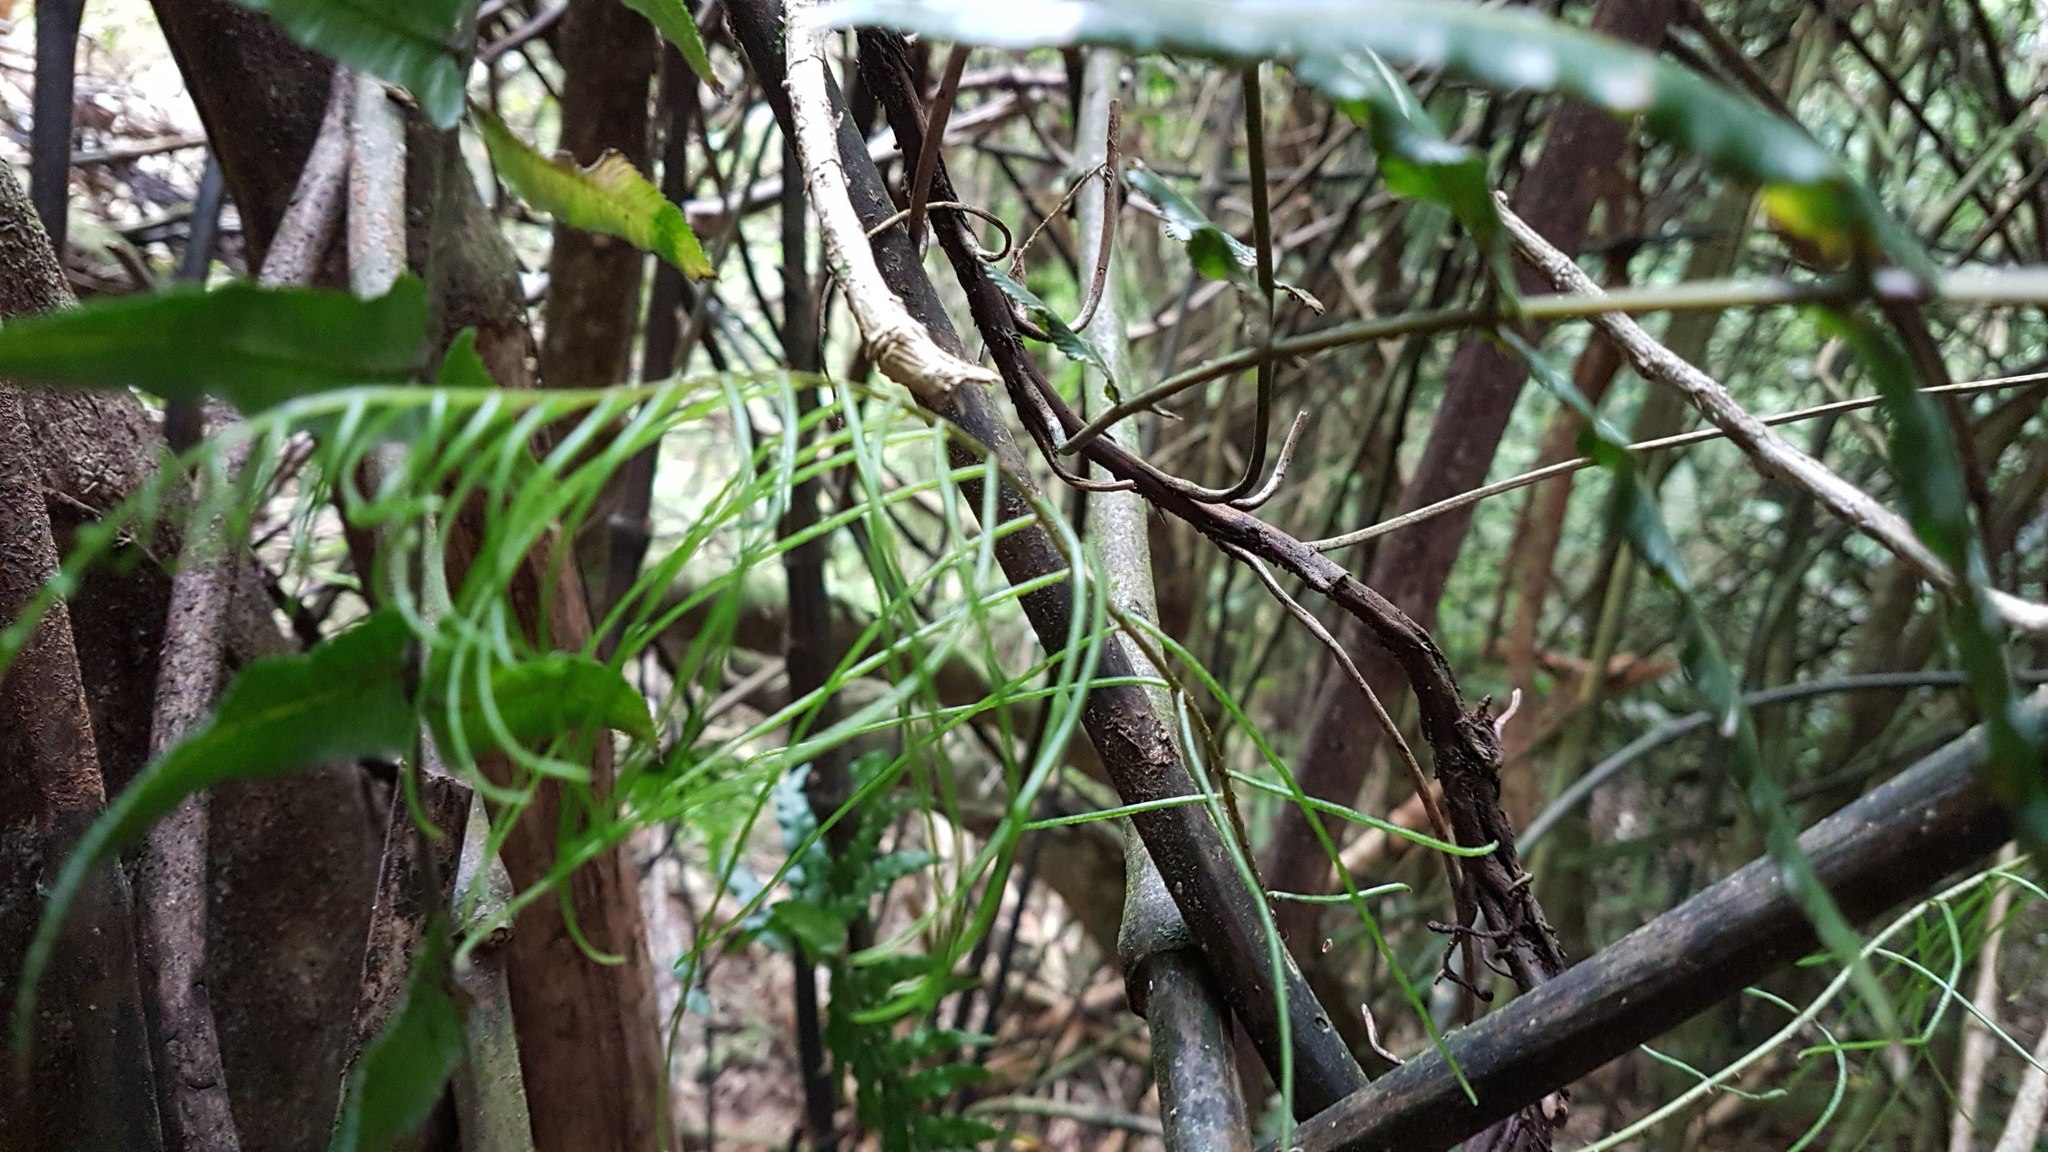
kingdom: Plantae
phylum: Tracheophyta
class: Polypodiopsida
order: Polypodiales
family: Blechnaceae
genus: Icarus
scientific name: Icarus filiformis
